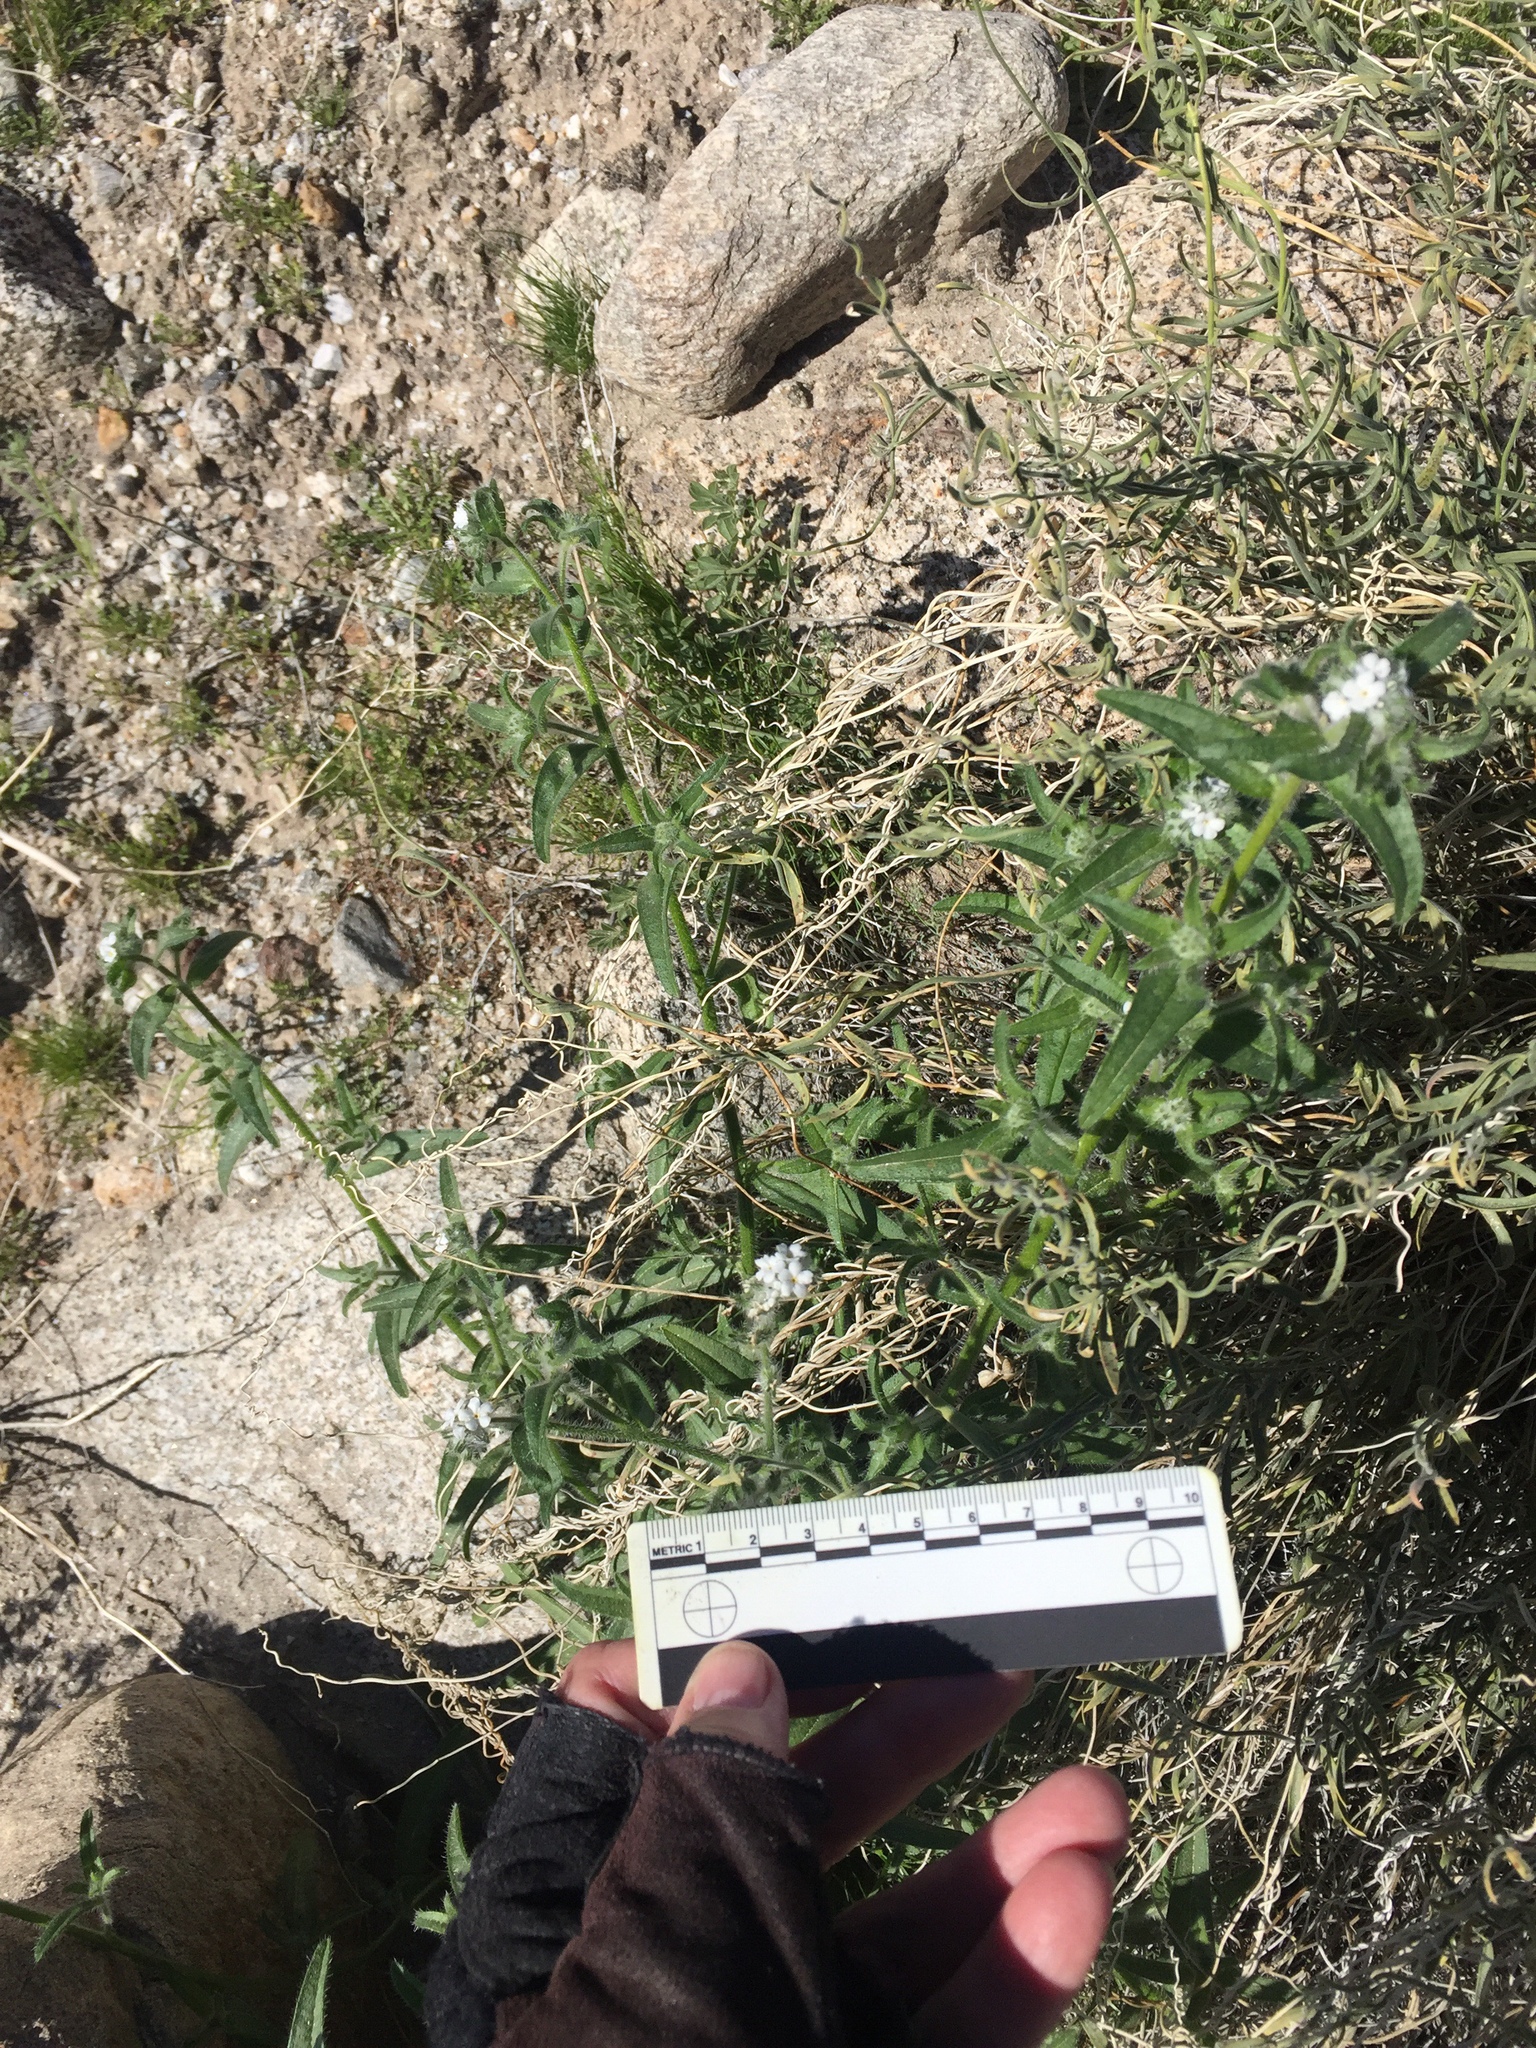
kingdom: Plantae
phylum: Tracheophyta
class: Magnoliopsida
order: Boraginales
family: Boraginaceae
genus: Cryptantha
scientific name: Cryptantha intermedia
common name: Clearwater cryptantha
